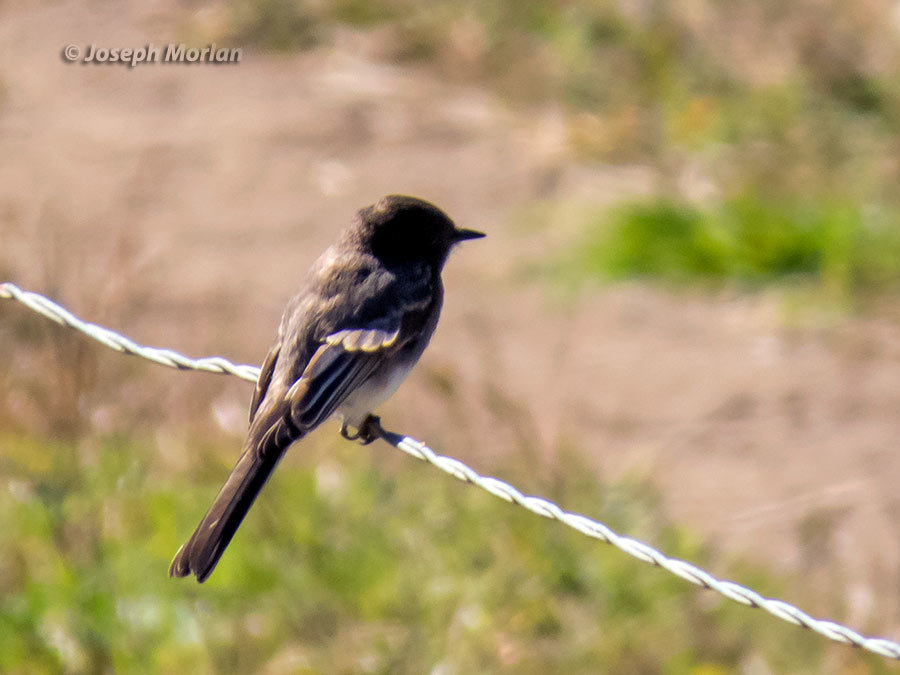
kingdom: Animalia
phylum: Chordata
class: Aves
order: Passeriformes
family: Tyrannidae
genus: Sayornis
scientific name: Sayornis nigricans
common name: Black phoebe
